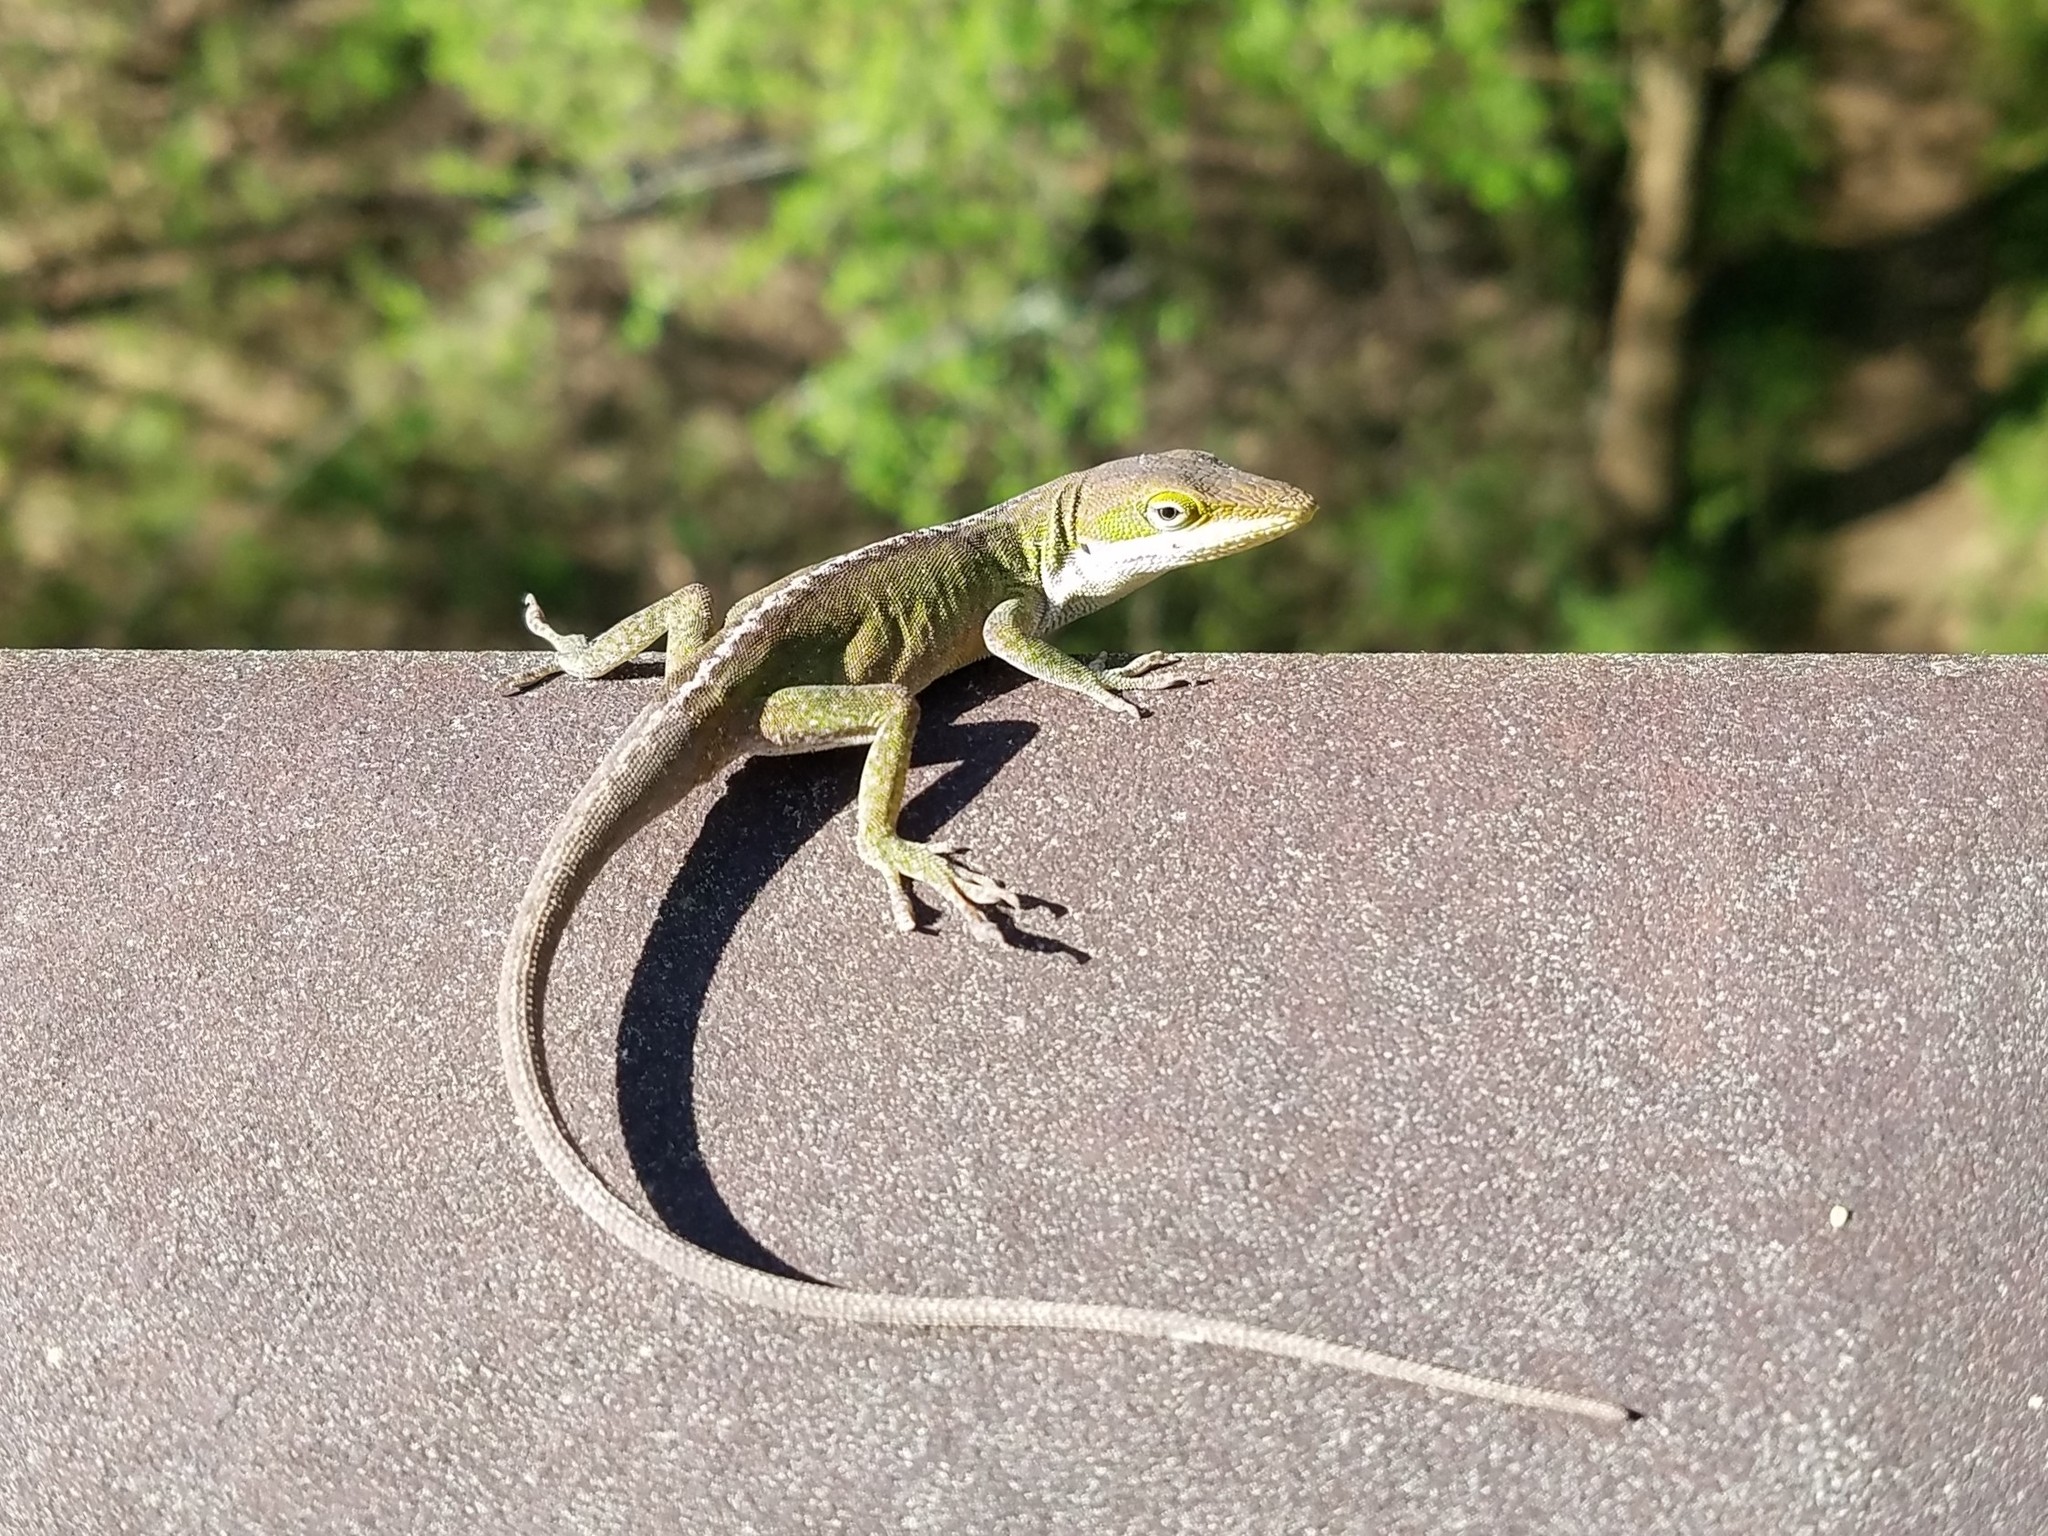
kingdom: Animalia
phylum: Chordata
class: Squamata
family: Dactyloidae
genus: Anolis
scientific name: Anolis carolinensis
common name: Green anole
